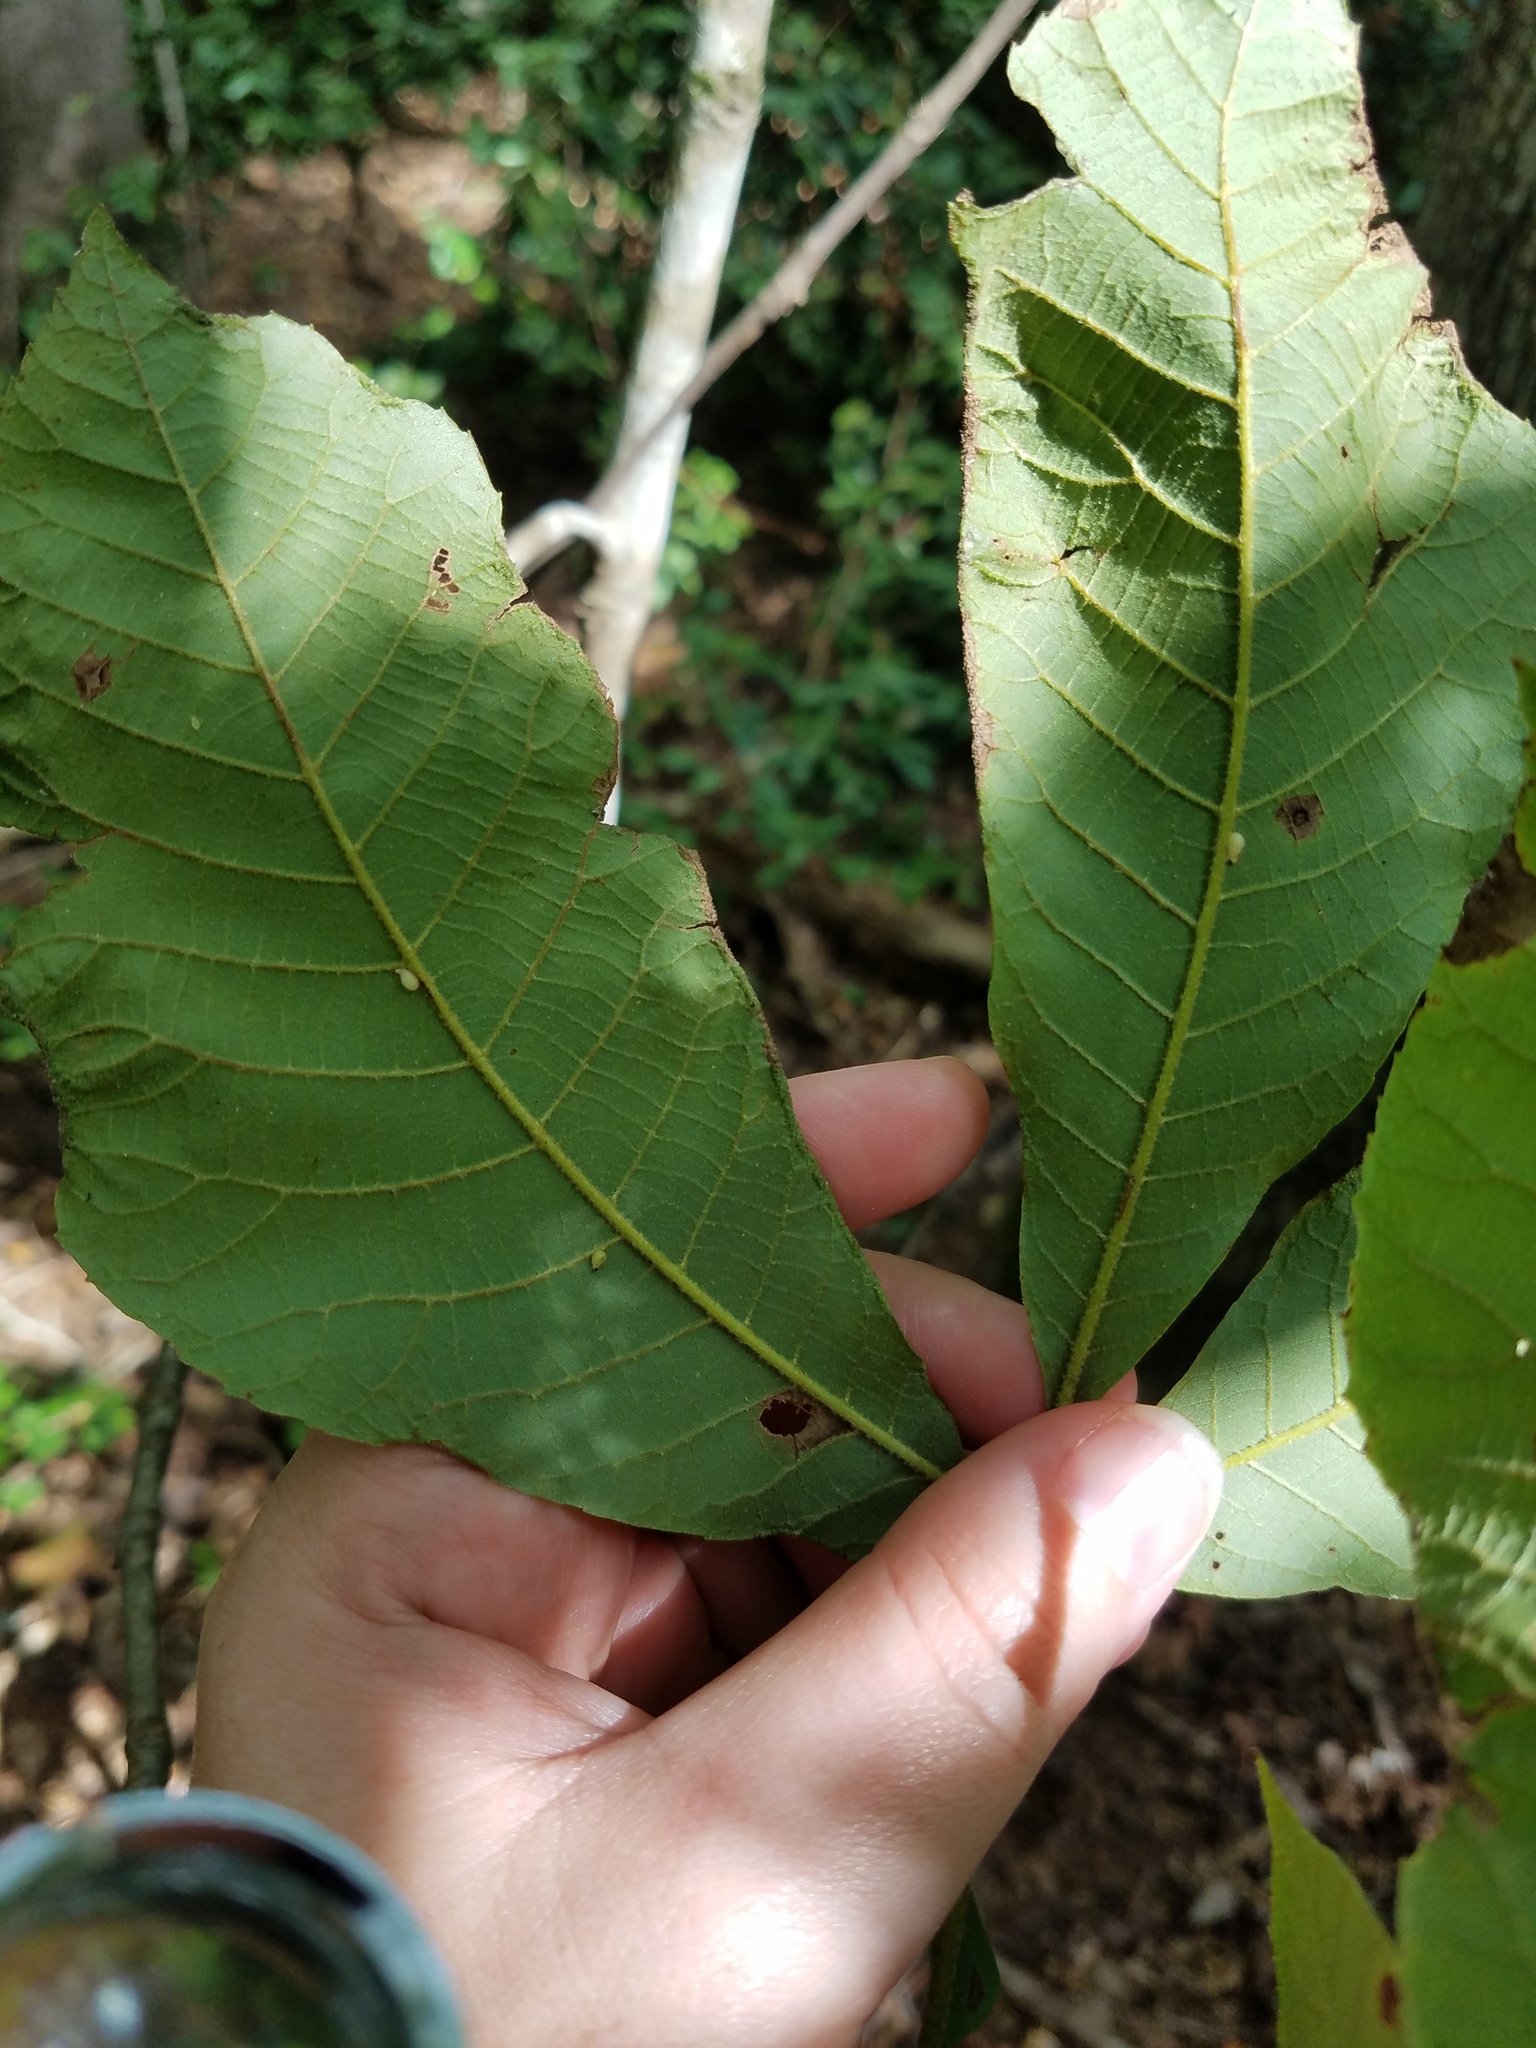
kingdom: Animalia
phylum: Arthropoda
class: Insecta
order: Diptera
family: Cecidomyiidae
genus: Caryomyia
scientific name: Caryomyia eumaris
